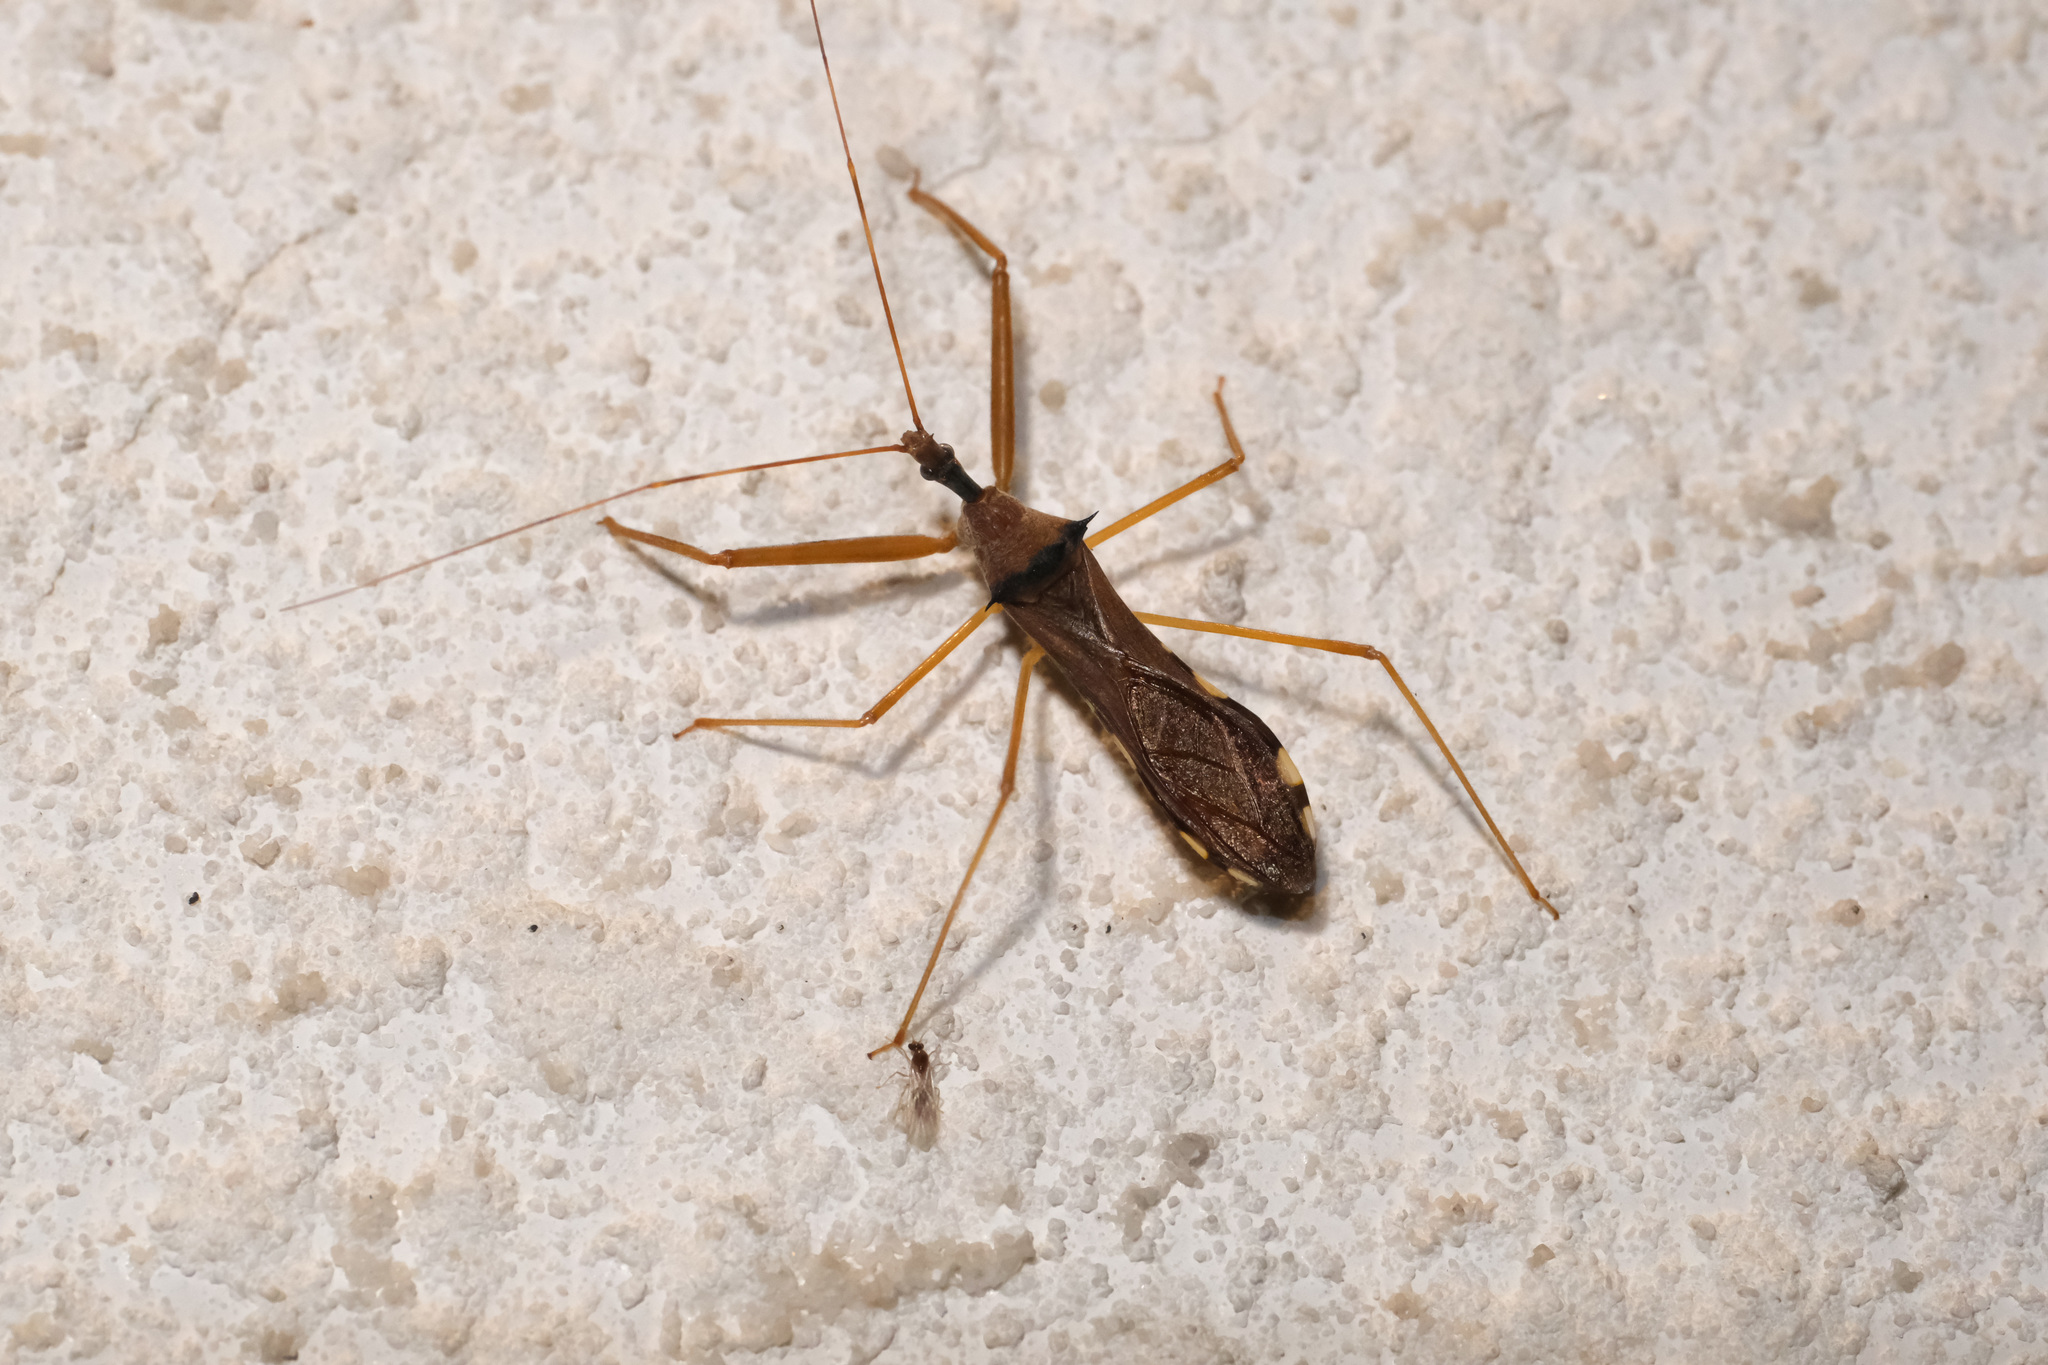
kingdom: Animalia
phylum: Arthropoda
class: Insecta
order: Hemiptera
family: Reduviidae
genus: Epidaus
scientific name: Epidaus sexspinus
